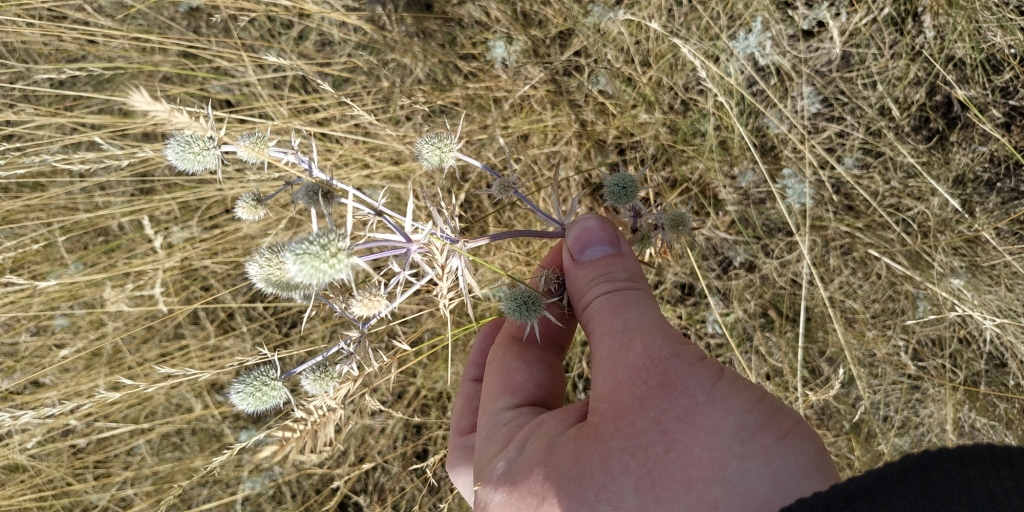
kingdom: Plantae
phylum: Tracheophyta
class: Magnoliopsida
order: Apiales
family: Apiaceae
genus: Eryngium
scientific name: Eryngium planum
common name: Blue eryngo
